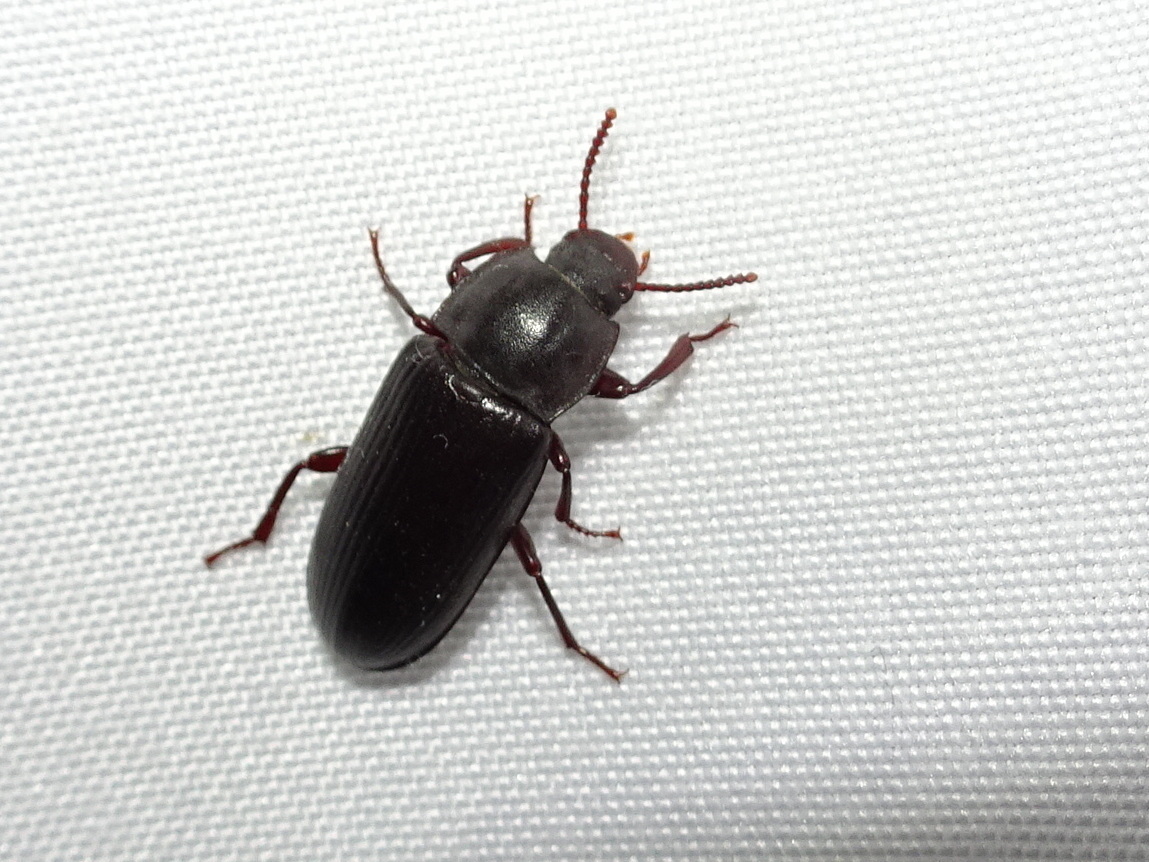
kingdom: Animalia
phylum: Arthropoda
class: Insecta
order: Coleoptera
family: Tenebrionidae
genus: Tenebrio
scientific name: Tenebrio molitor
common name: Hardback beetle
